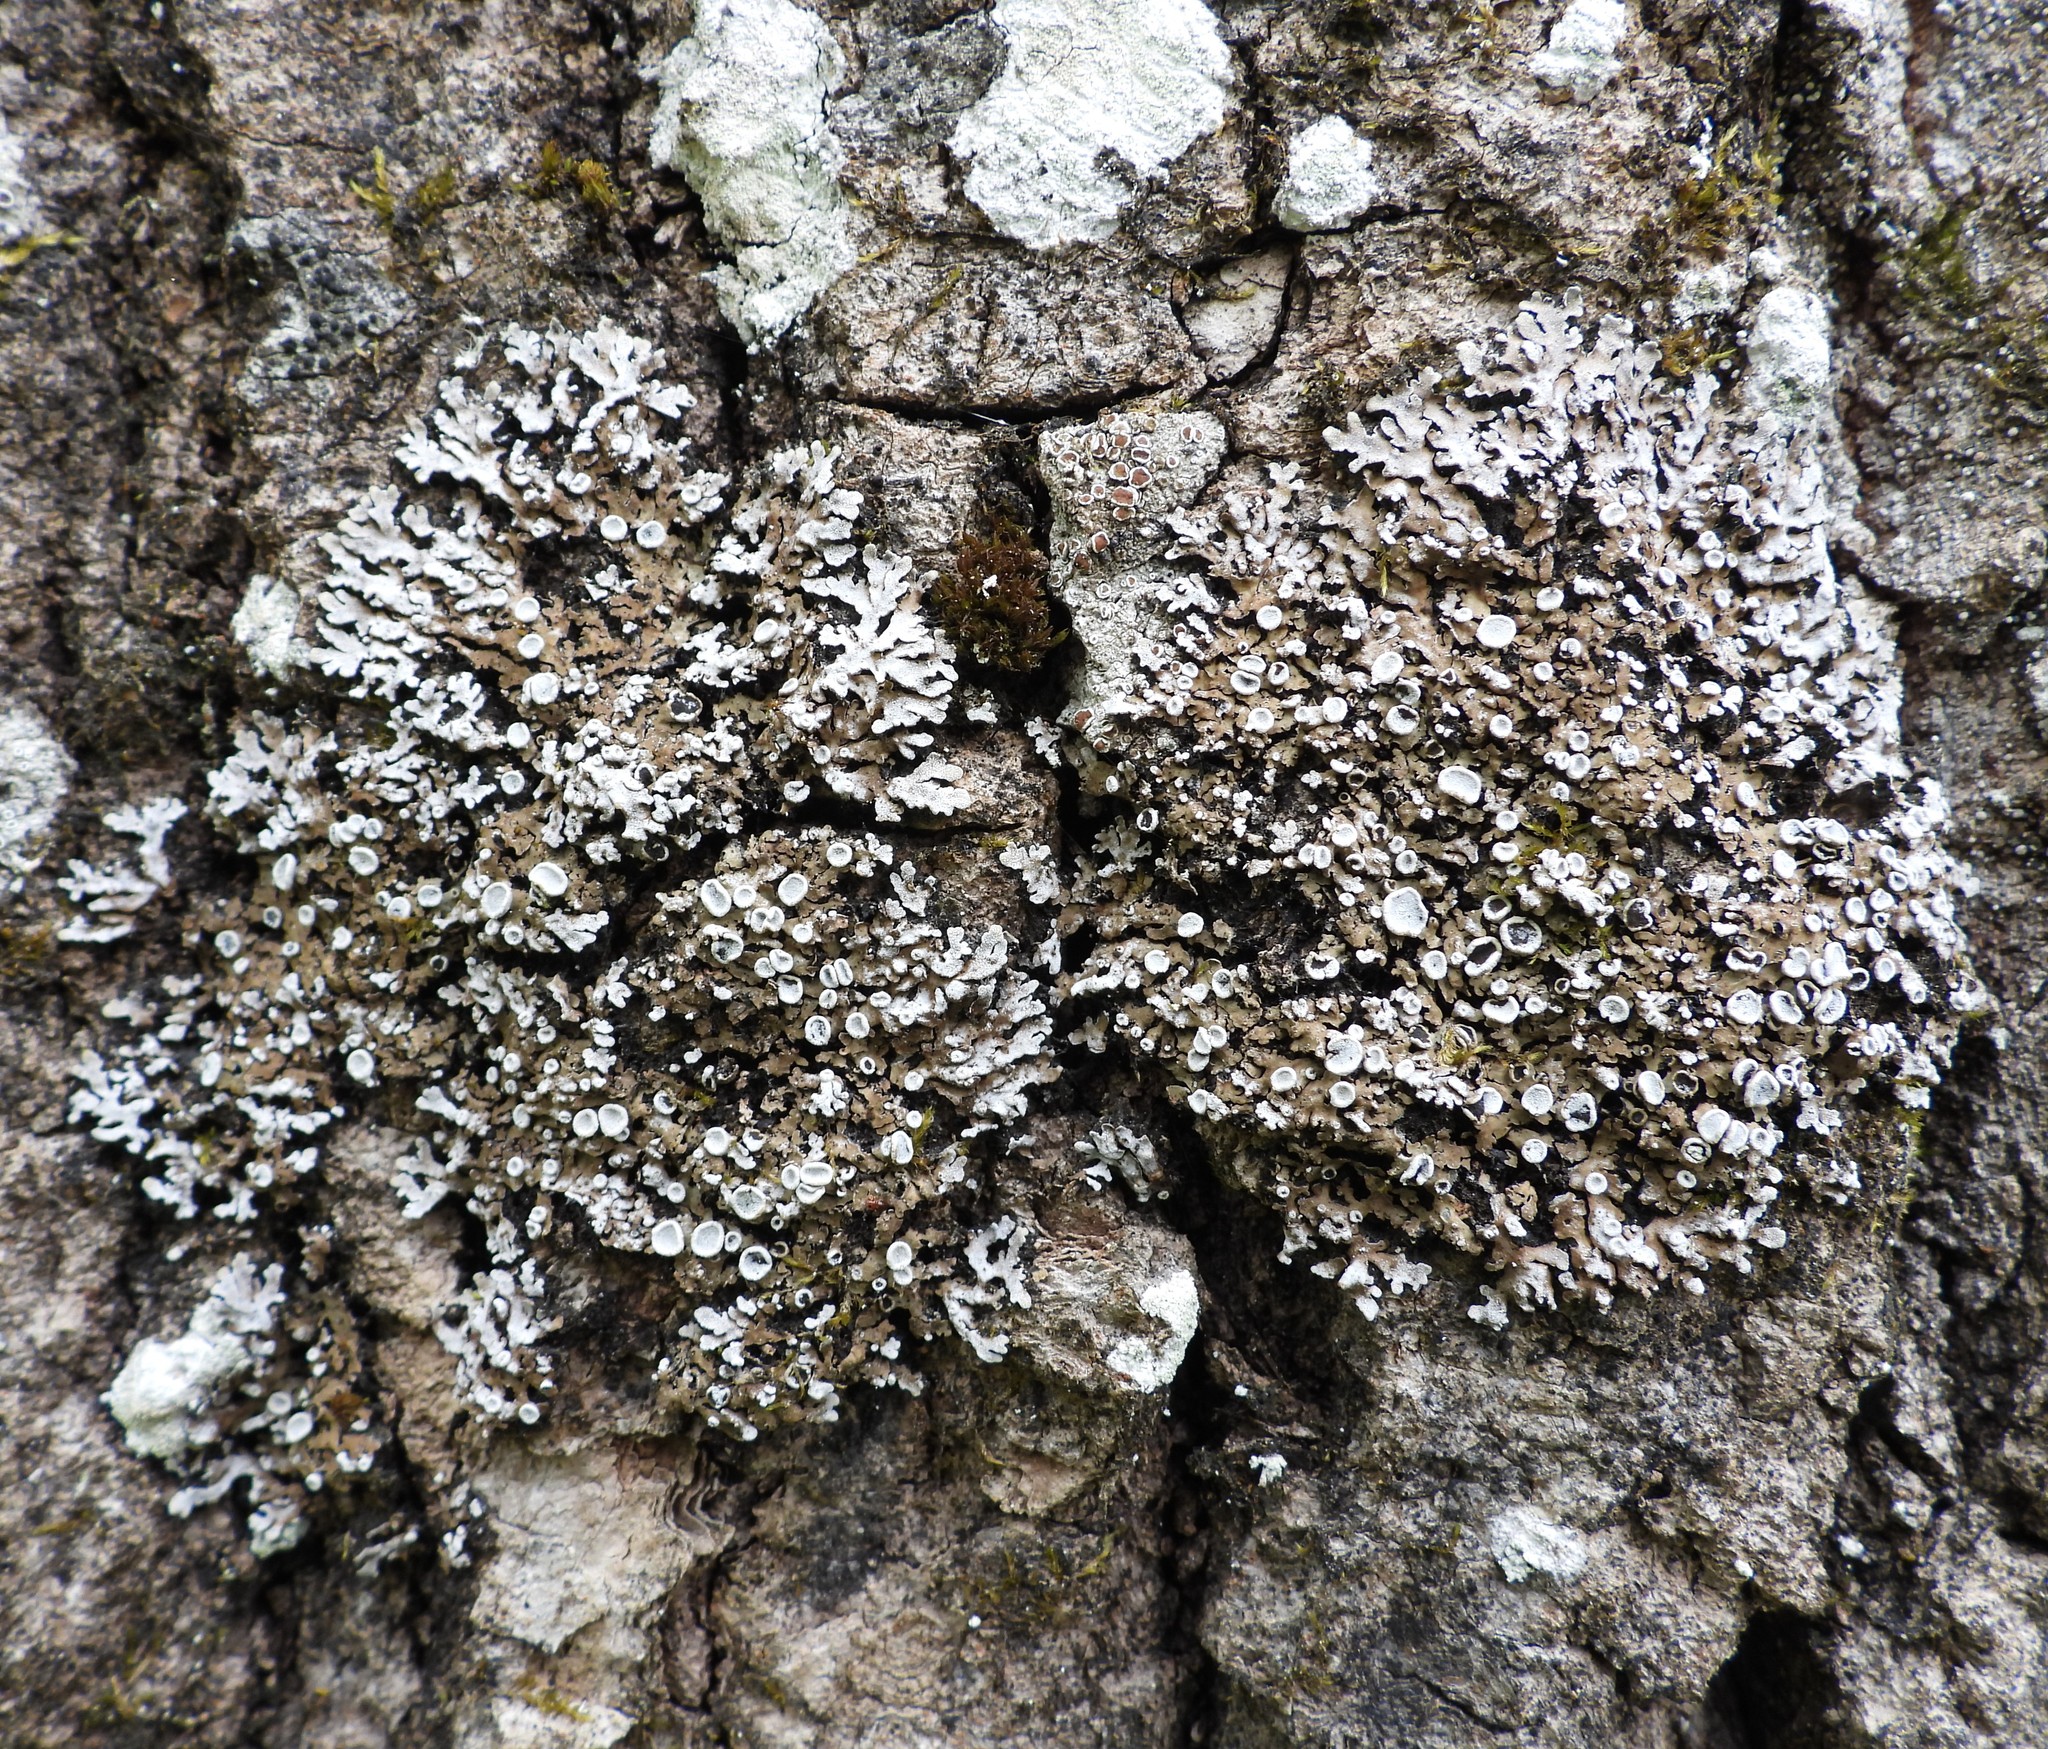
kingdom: Fungi
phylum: Ascomycota
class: Lecanoromycetes
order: Caliciales
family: Physciaceae
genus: Physconia
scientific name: Physconia distorta
